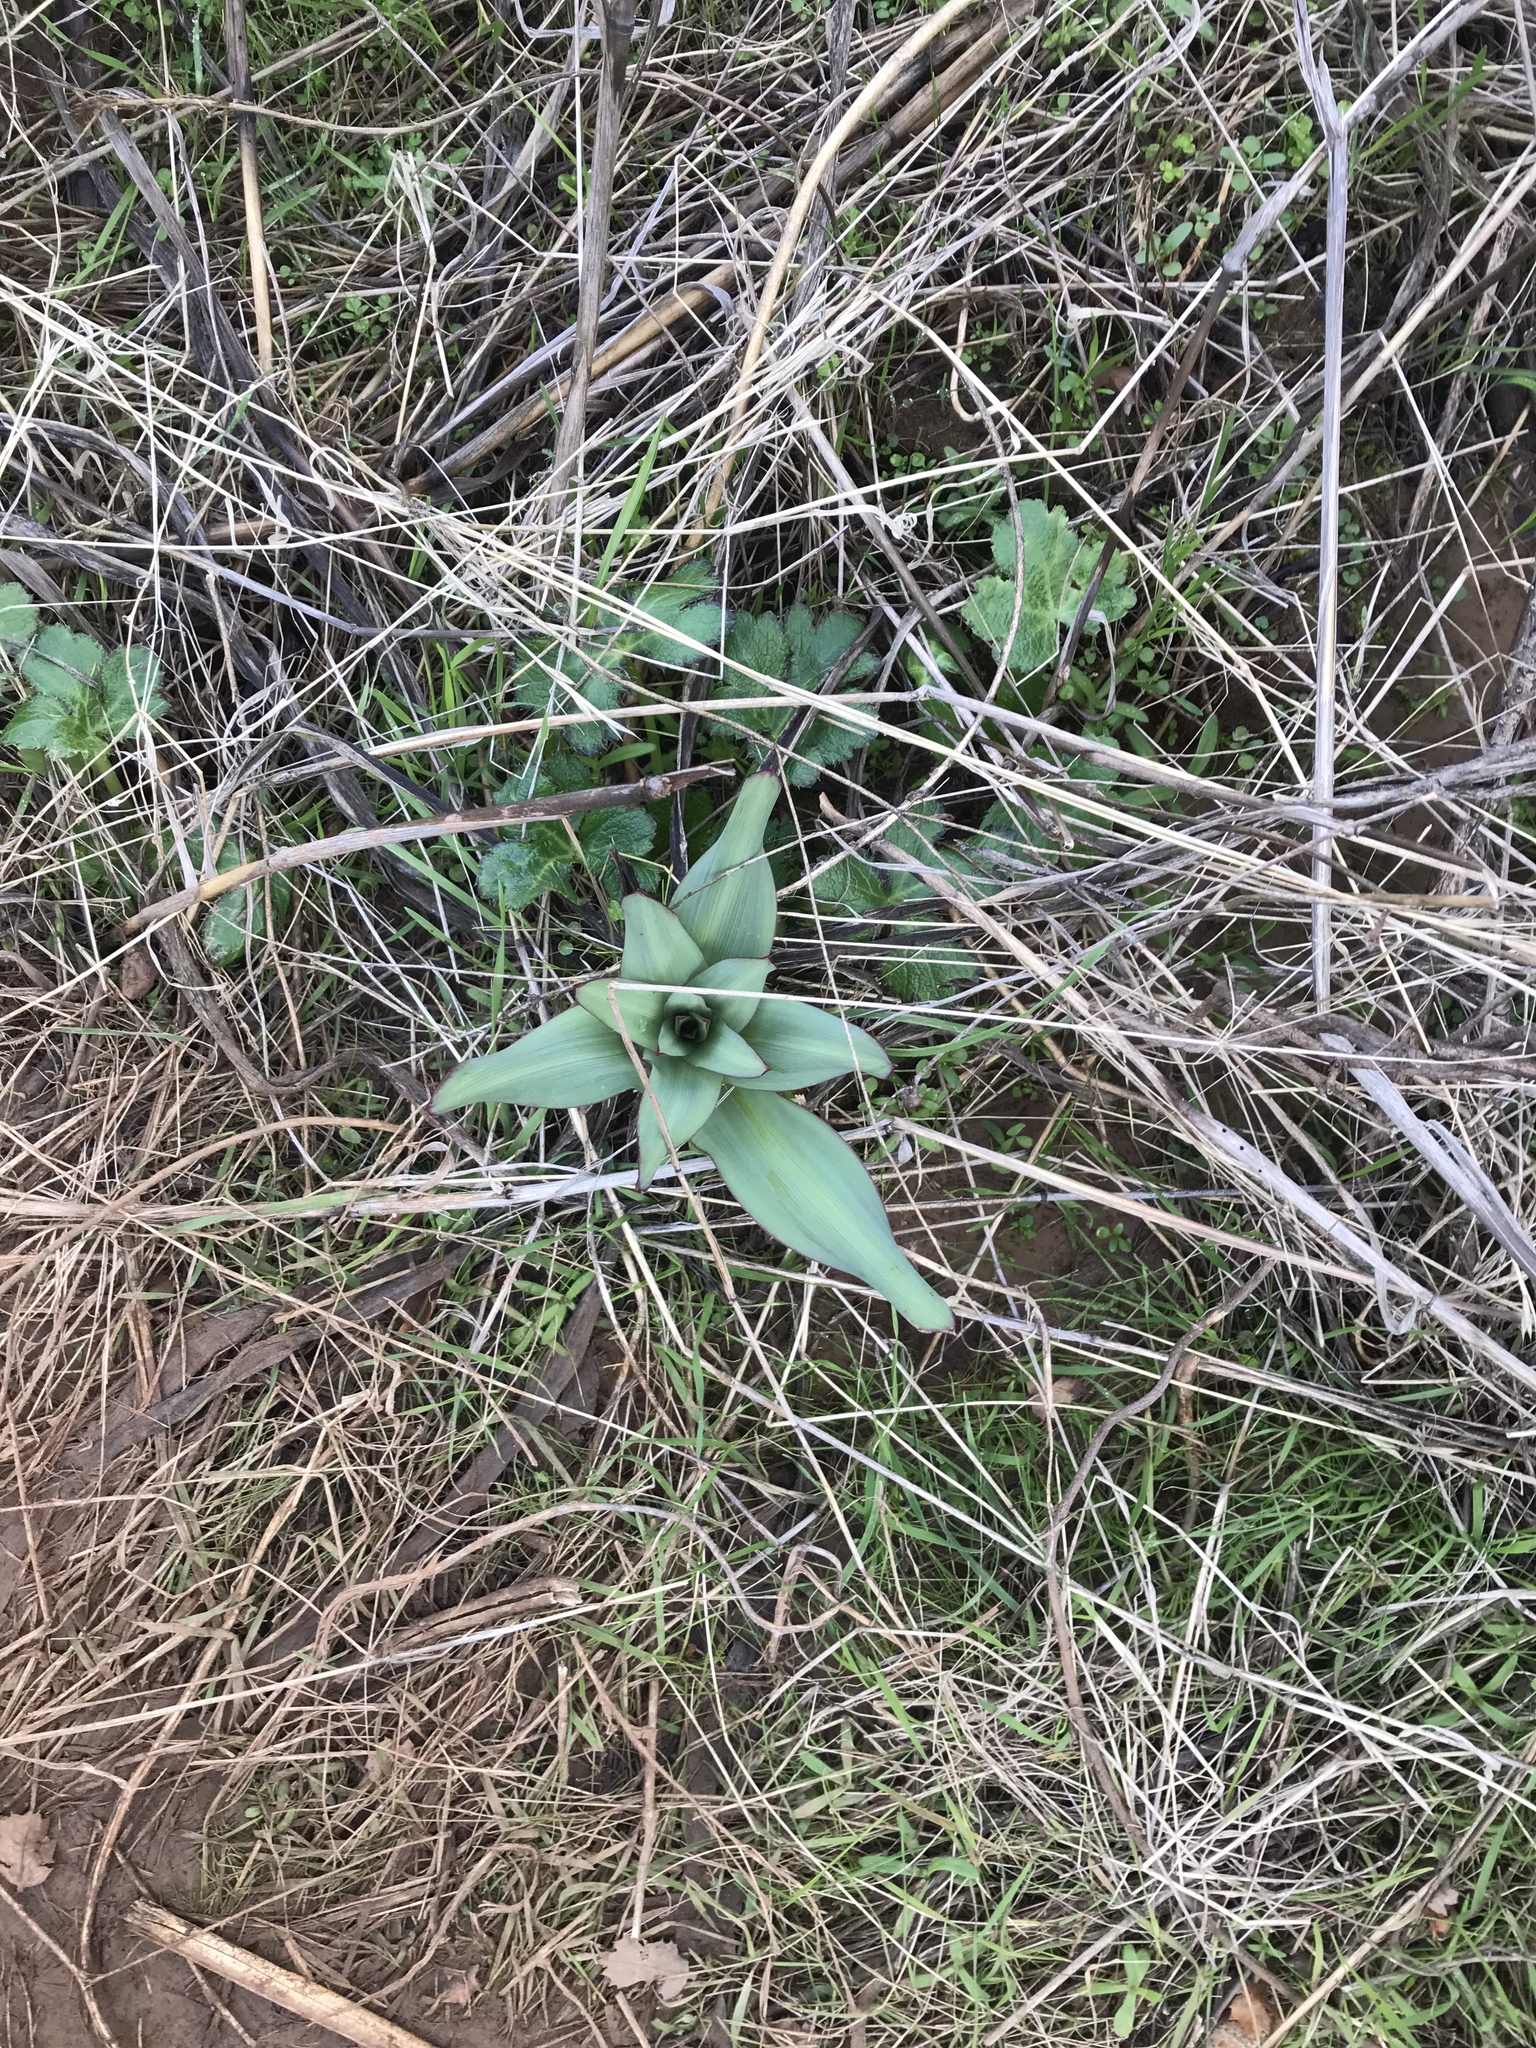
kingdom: Plantae
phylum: Tracheophyta
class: Liliopsida
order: Asparagales
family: Asparagaceae
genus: Chlorogalum
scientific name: Chlorogalum pomeridianum
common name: Amole
